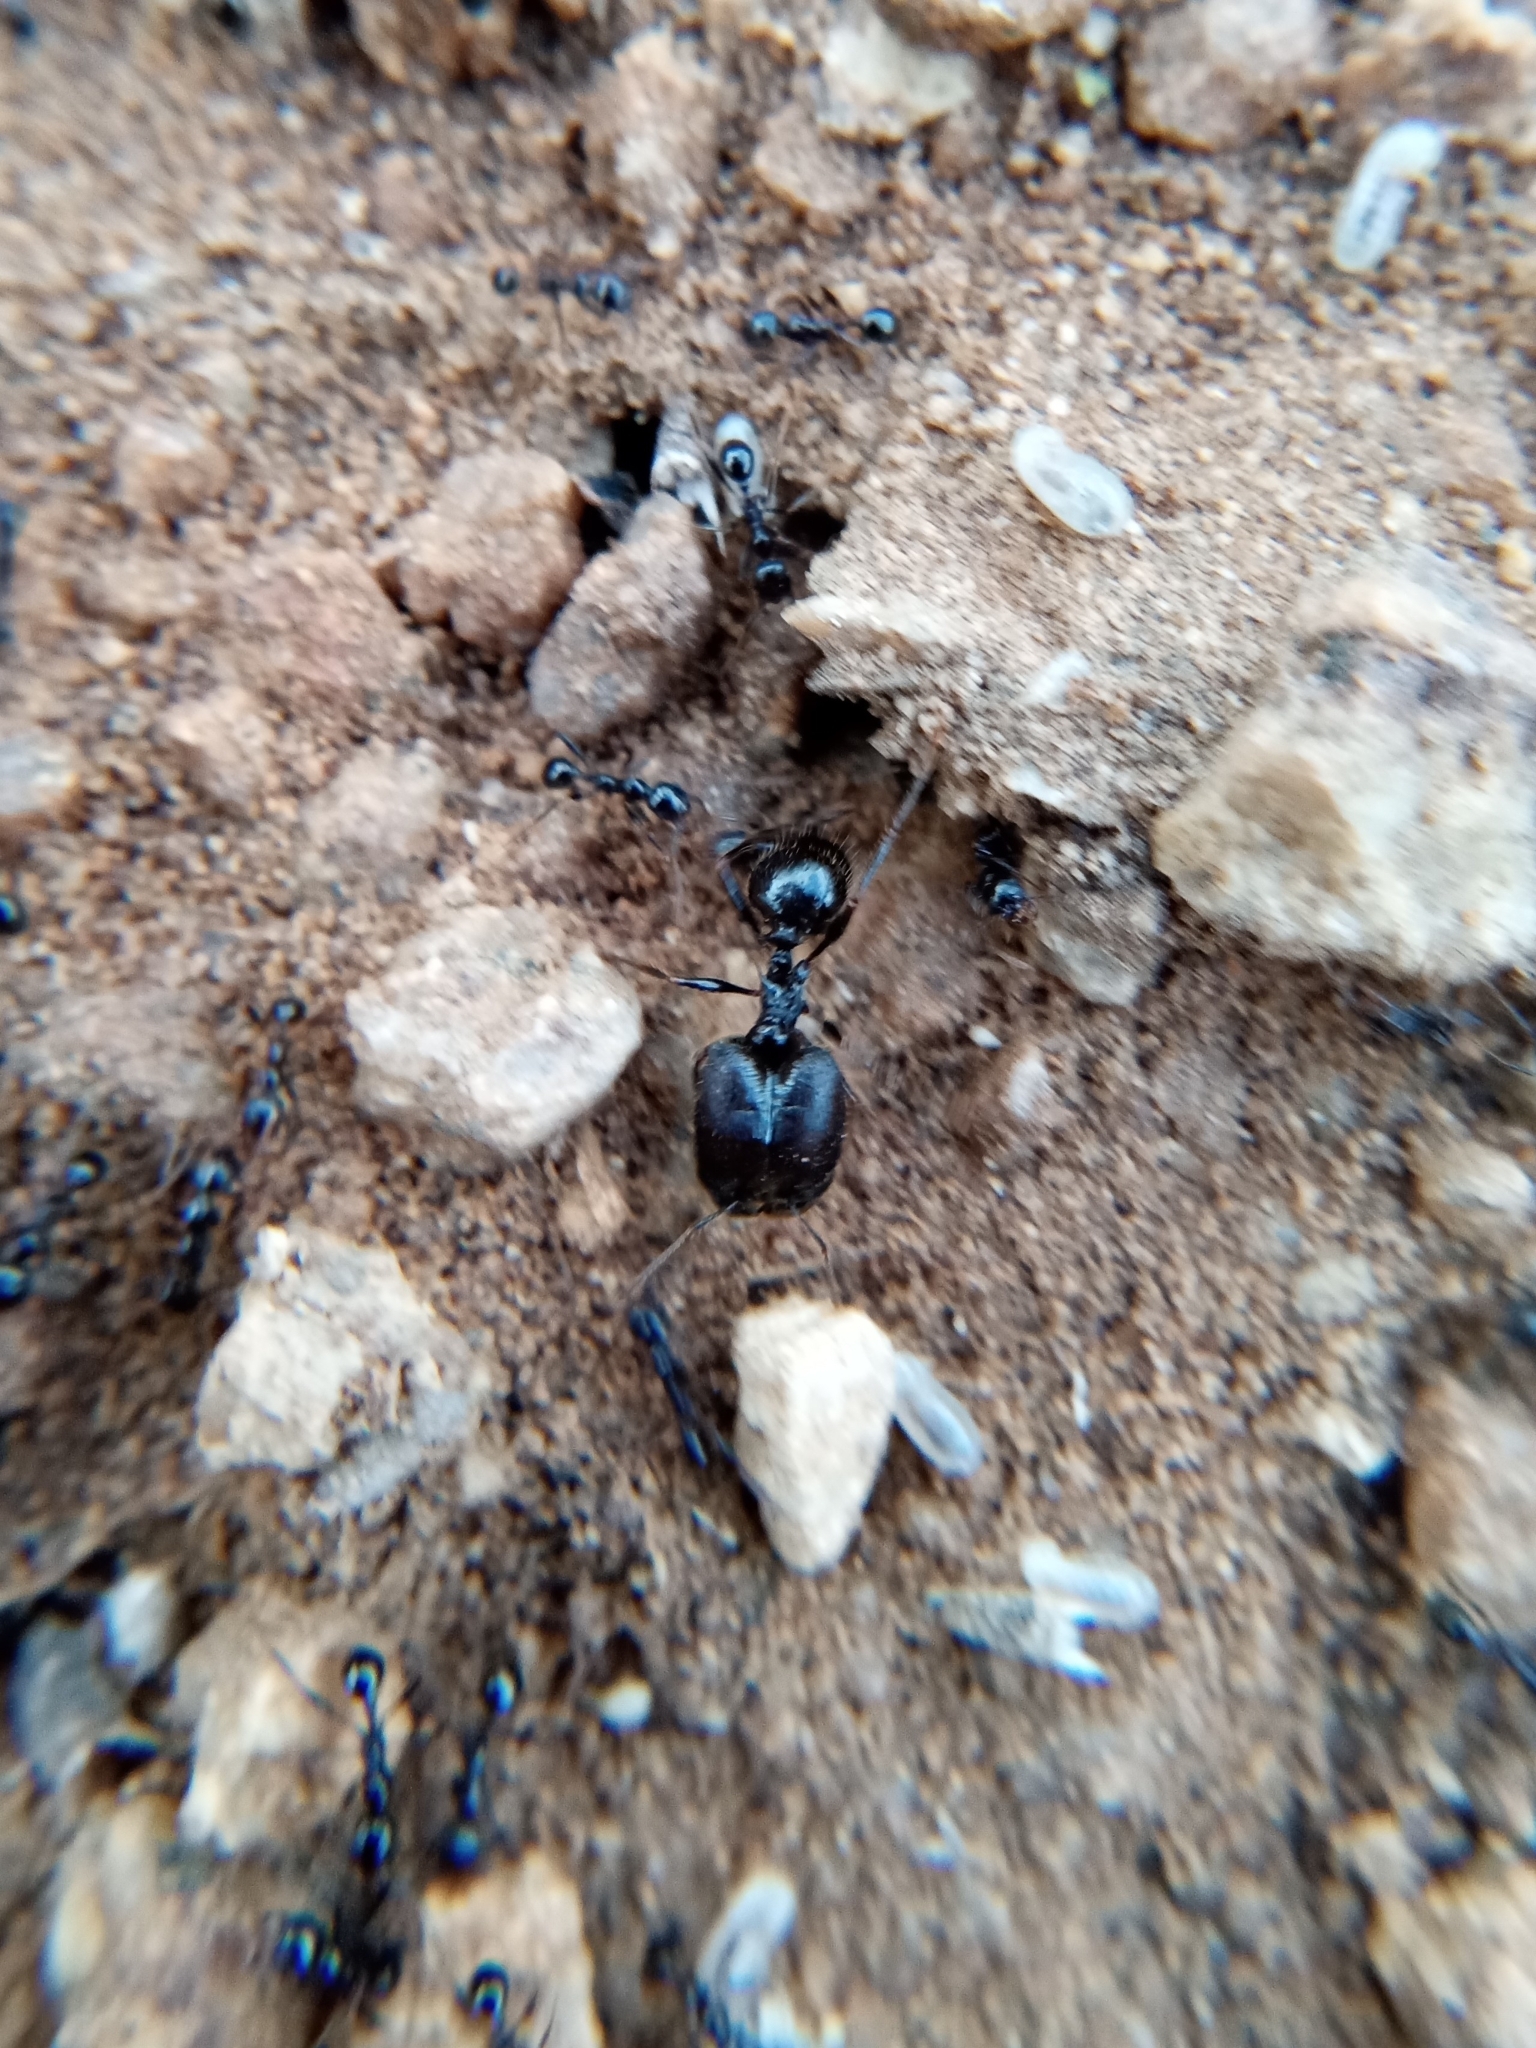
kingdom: Animalia
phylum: Arthropoda
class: Insecta
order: Hymenoptera
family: Formicidae
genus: Pheidole
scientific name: Pheidole rhea
